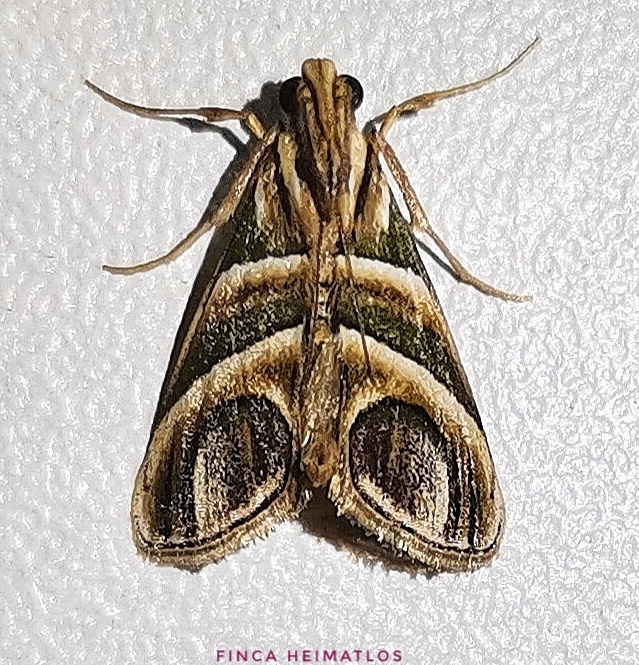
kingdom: Animalia
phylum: Arthropoda
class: Insecta
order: Lepidoptera
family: Pyralidae
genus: Incarcha
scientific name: Incarcha argentilinea
